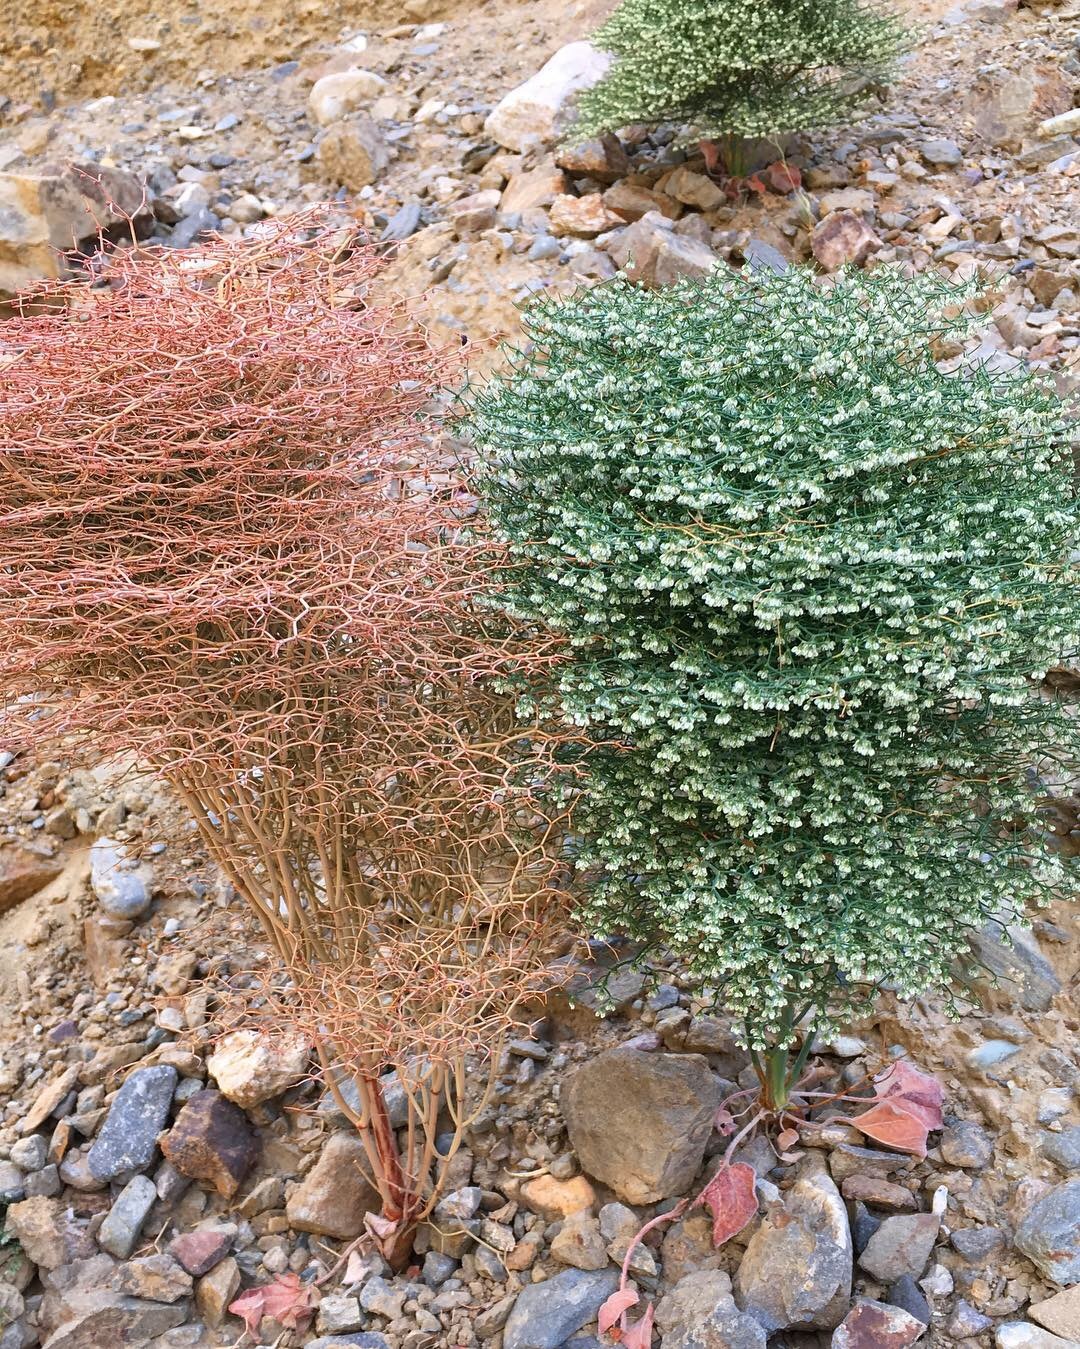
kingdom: Plantae
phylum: Tracheophyta
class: Magnoliopsida
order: Caryophyllales
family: Polygonaceae
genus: Eriogonum
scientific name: Eriogonum rixfordii
